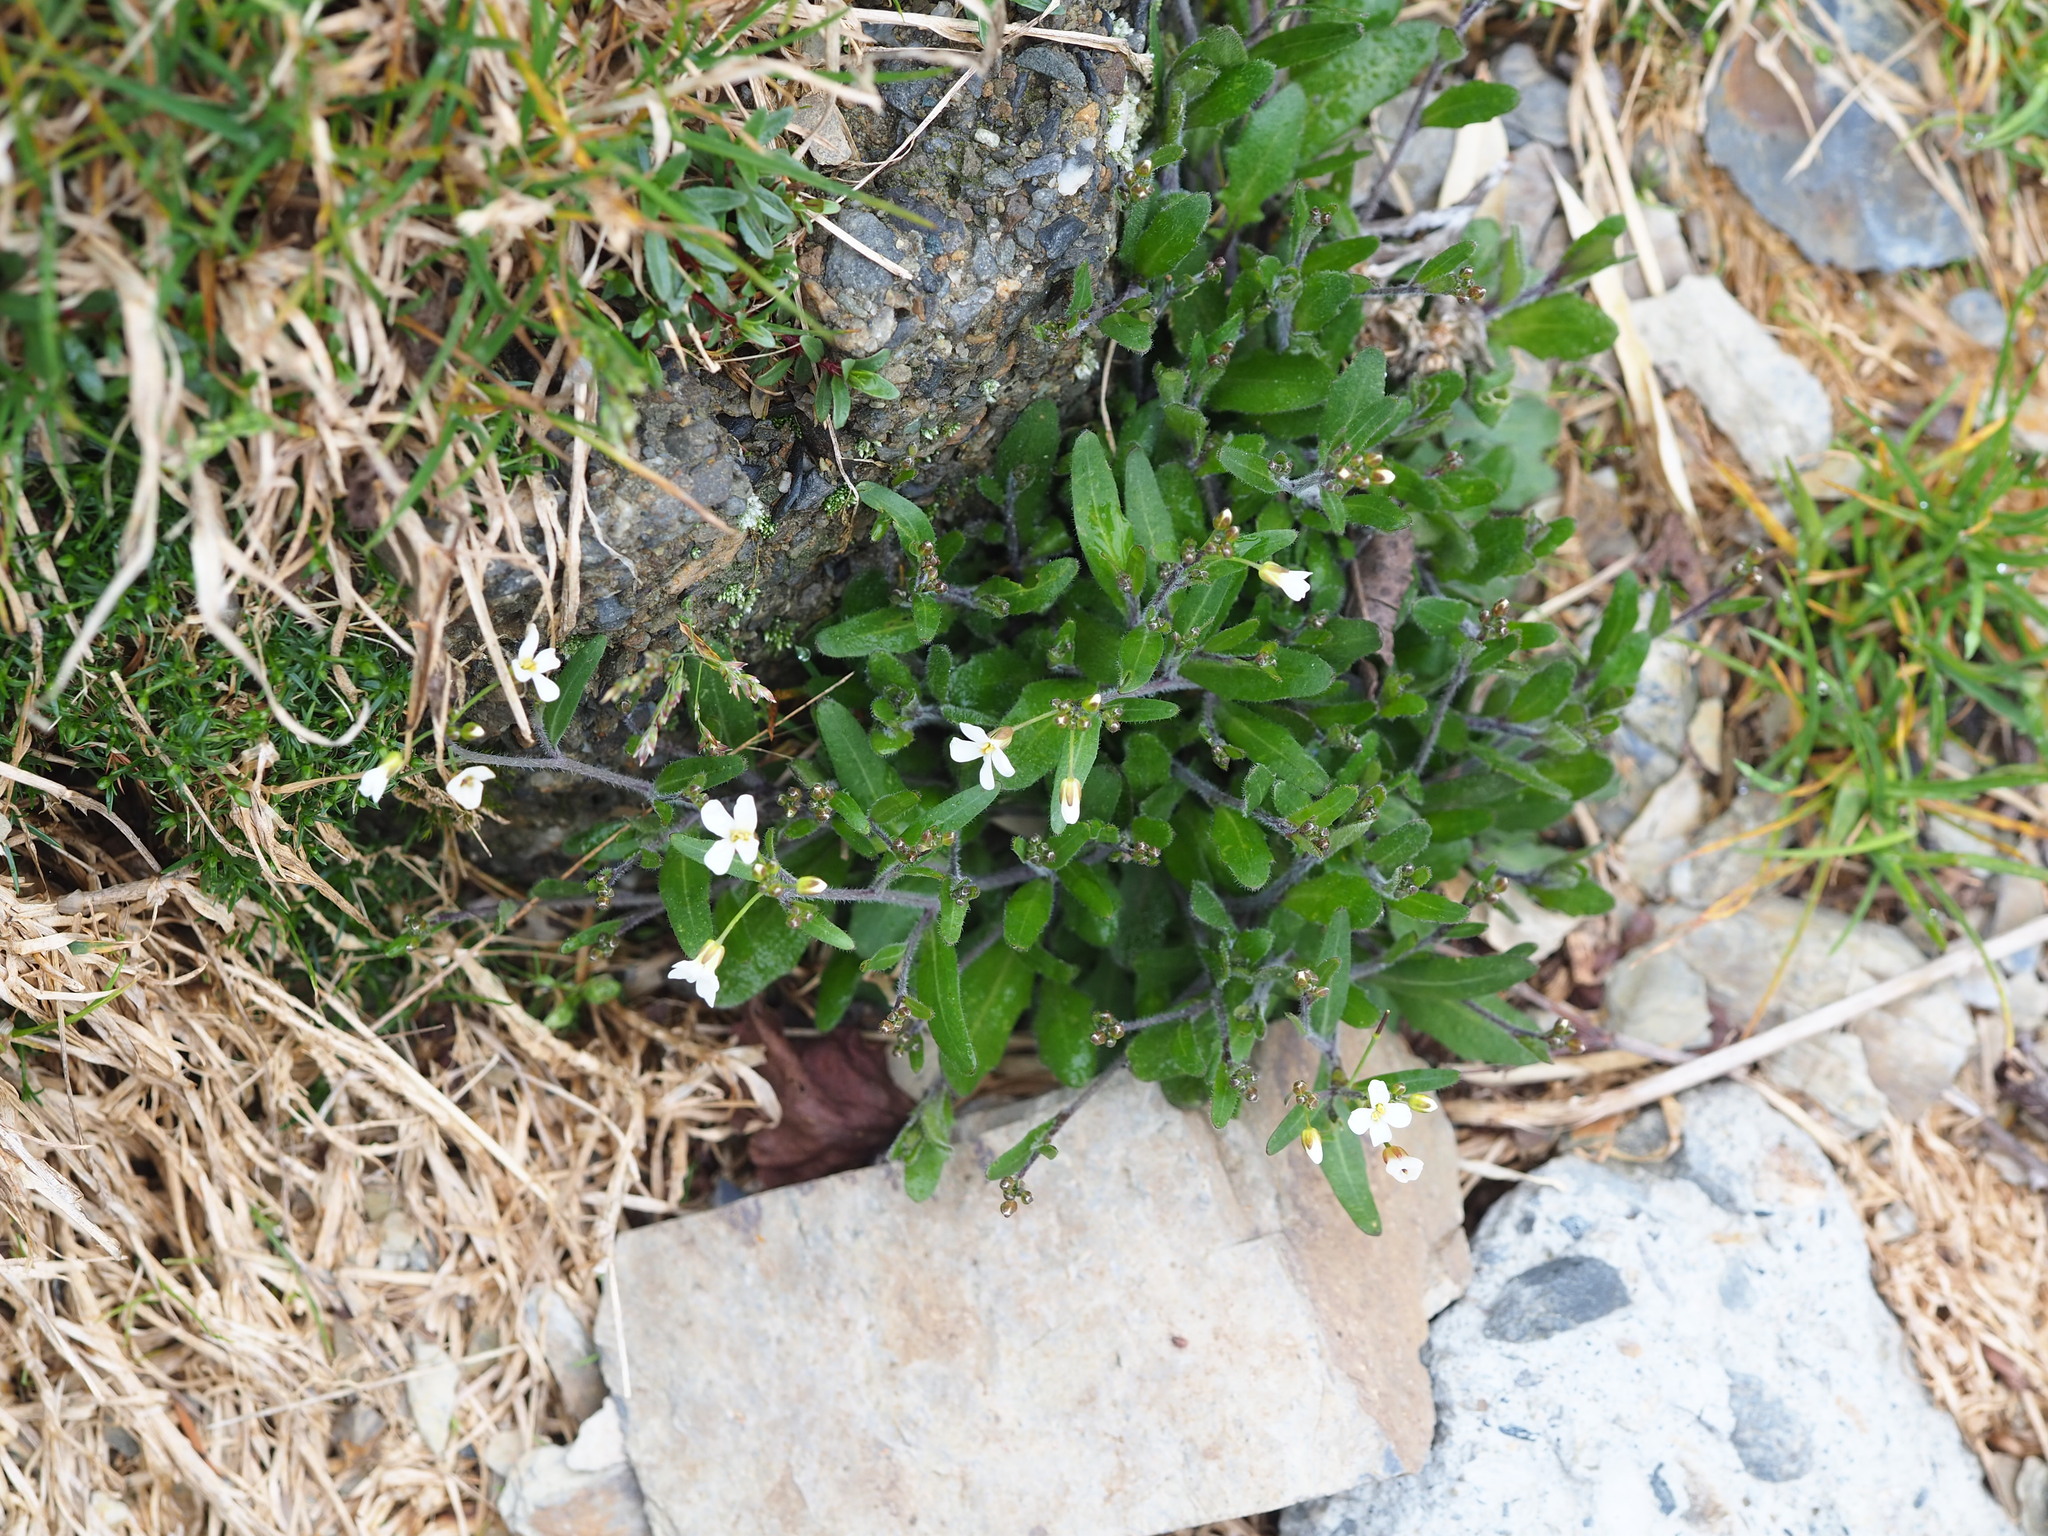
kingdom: Plantae
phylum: Tracheophyta
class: Magnoliopsida
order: Brassicales
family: Brassicaceae
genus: Arabidopsis
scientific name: Arabidopsis lyrata
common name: Lyrate rockcress
